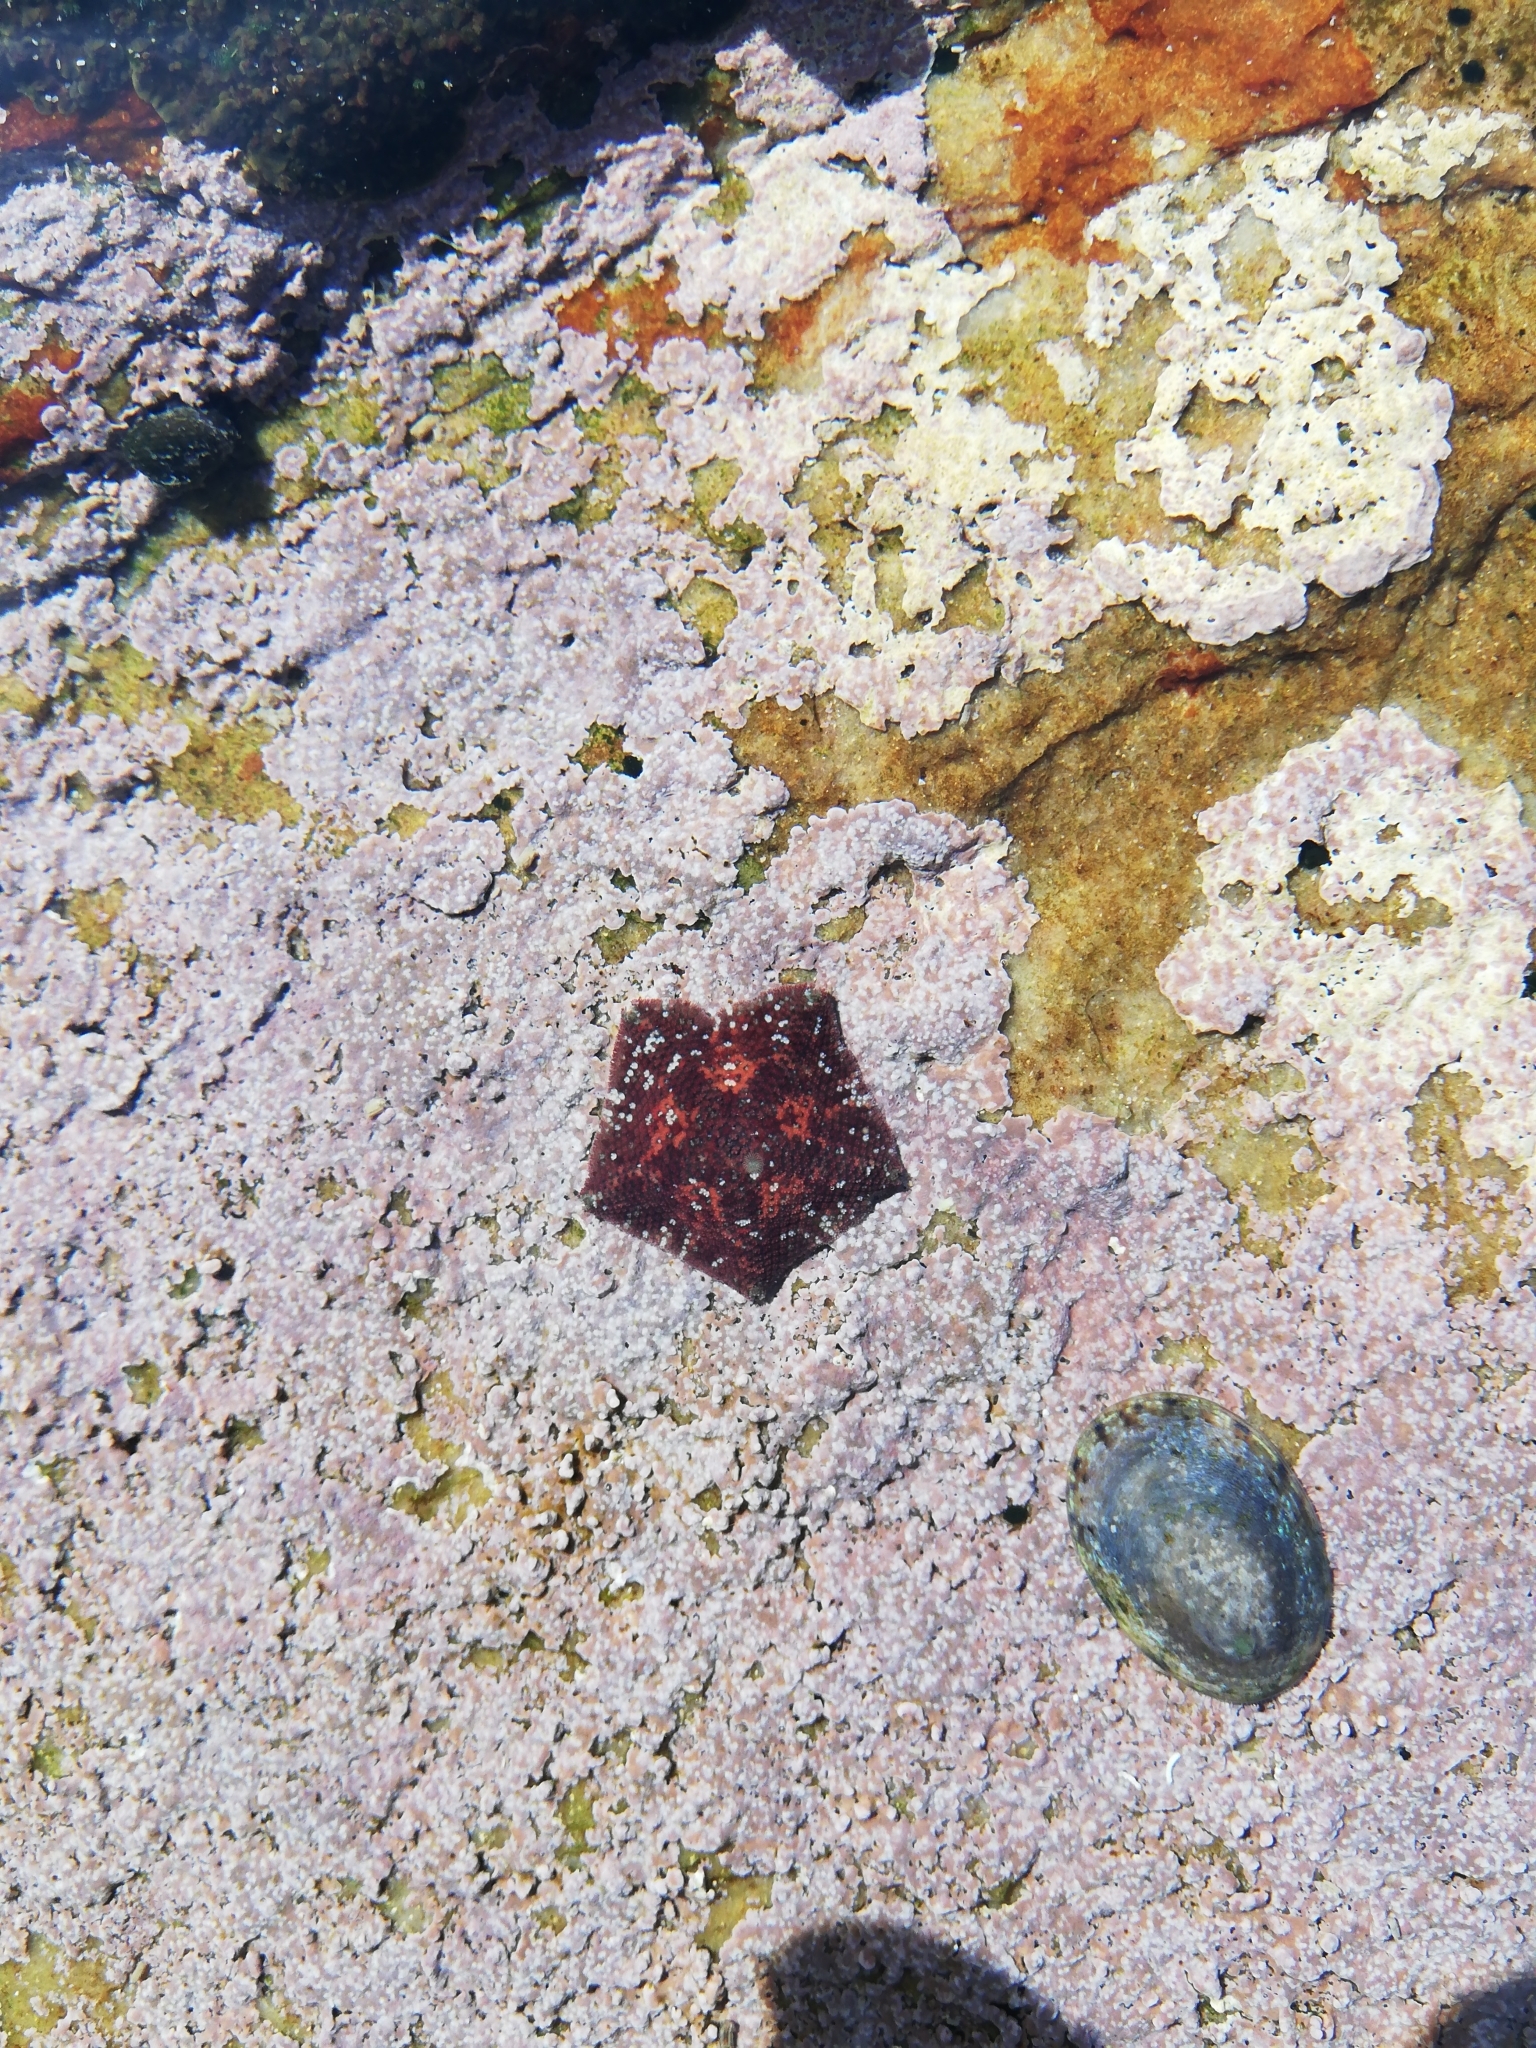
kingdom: Animalia
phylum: Echinodermata
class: Asteroidea
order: Valvatida
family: Asterinidae
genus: Parvulastra
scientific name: Parvulastra dyscrita
